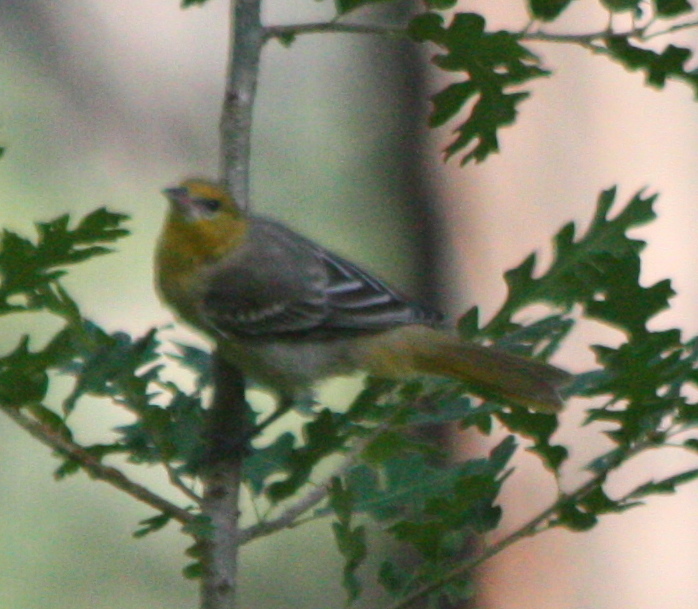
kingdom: Animalia
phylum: Chordata
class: Aves
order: Passeriformes
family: Icteridae
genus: Icterus
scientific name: Icterus bullockii
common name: Bullock's oriole
